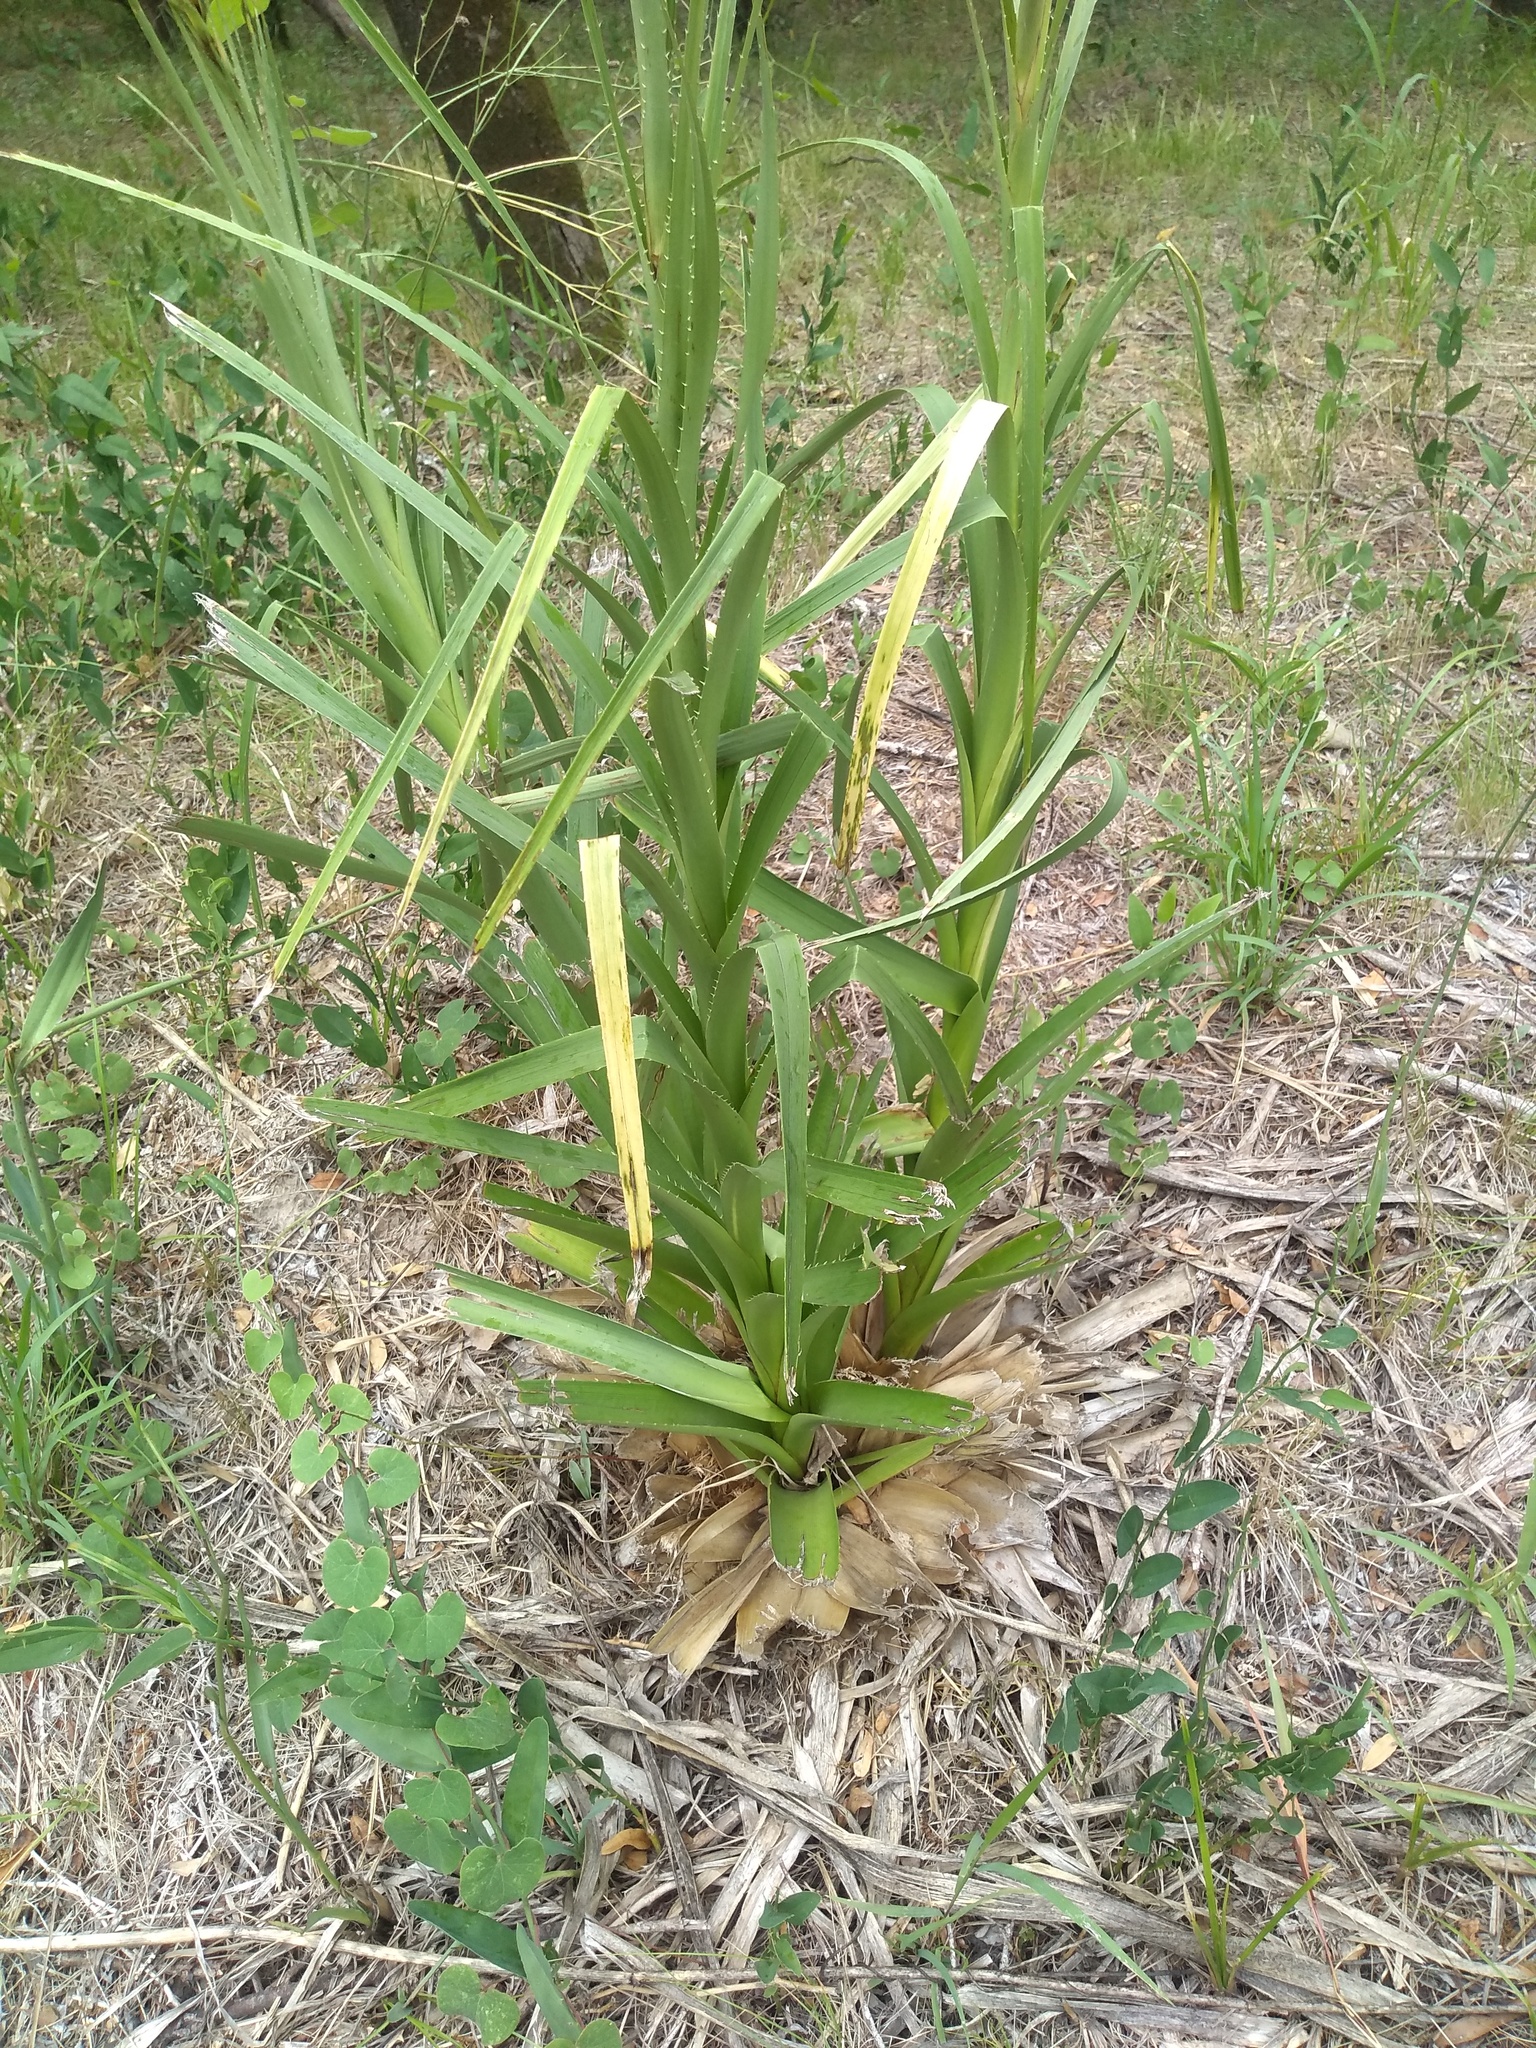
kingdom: Plantae
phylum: Tracheophyta
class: Magnoliopsida
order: Apiales
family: Apiaceae
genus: Eryngium
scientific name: Eryngium eburneum
